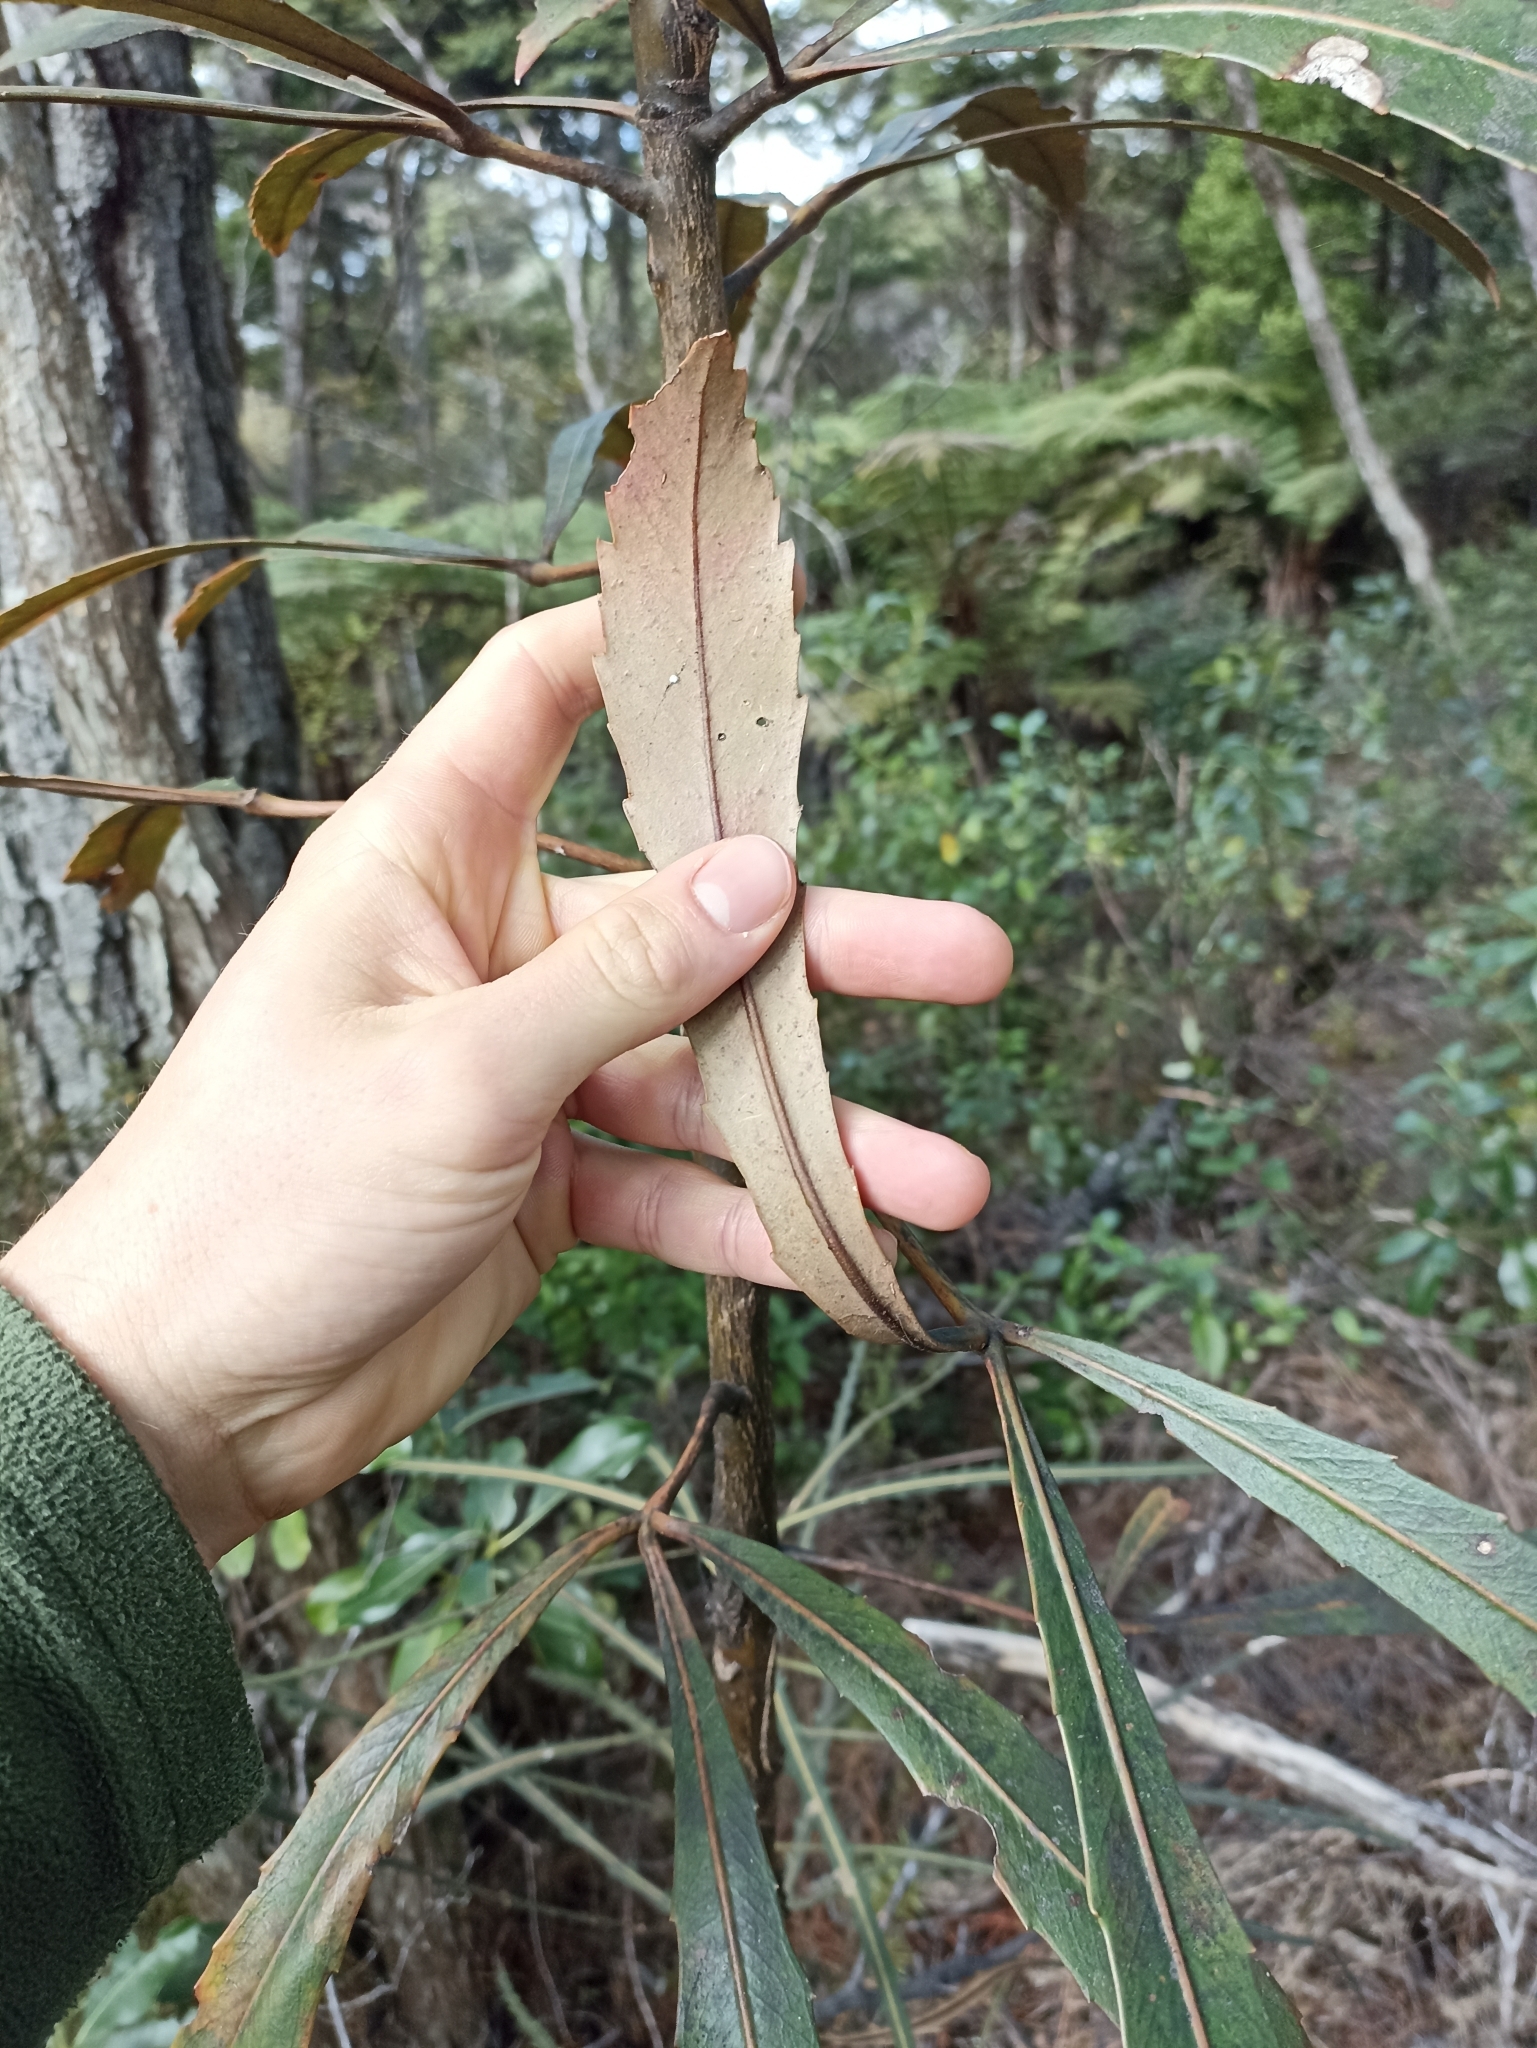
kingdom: Plantae
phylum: Tracheophyta
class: Magnoliopsida
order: Apiales
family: Araliaceae
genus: Pseudopanax
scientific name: Pseudopanax
